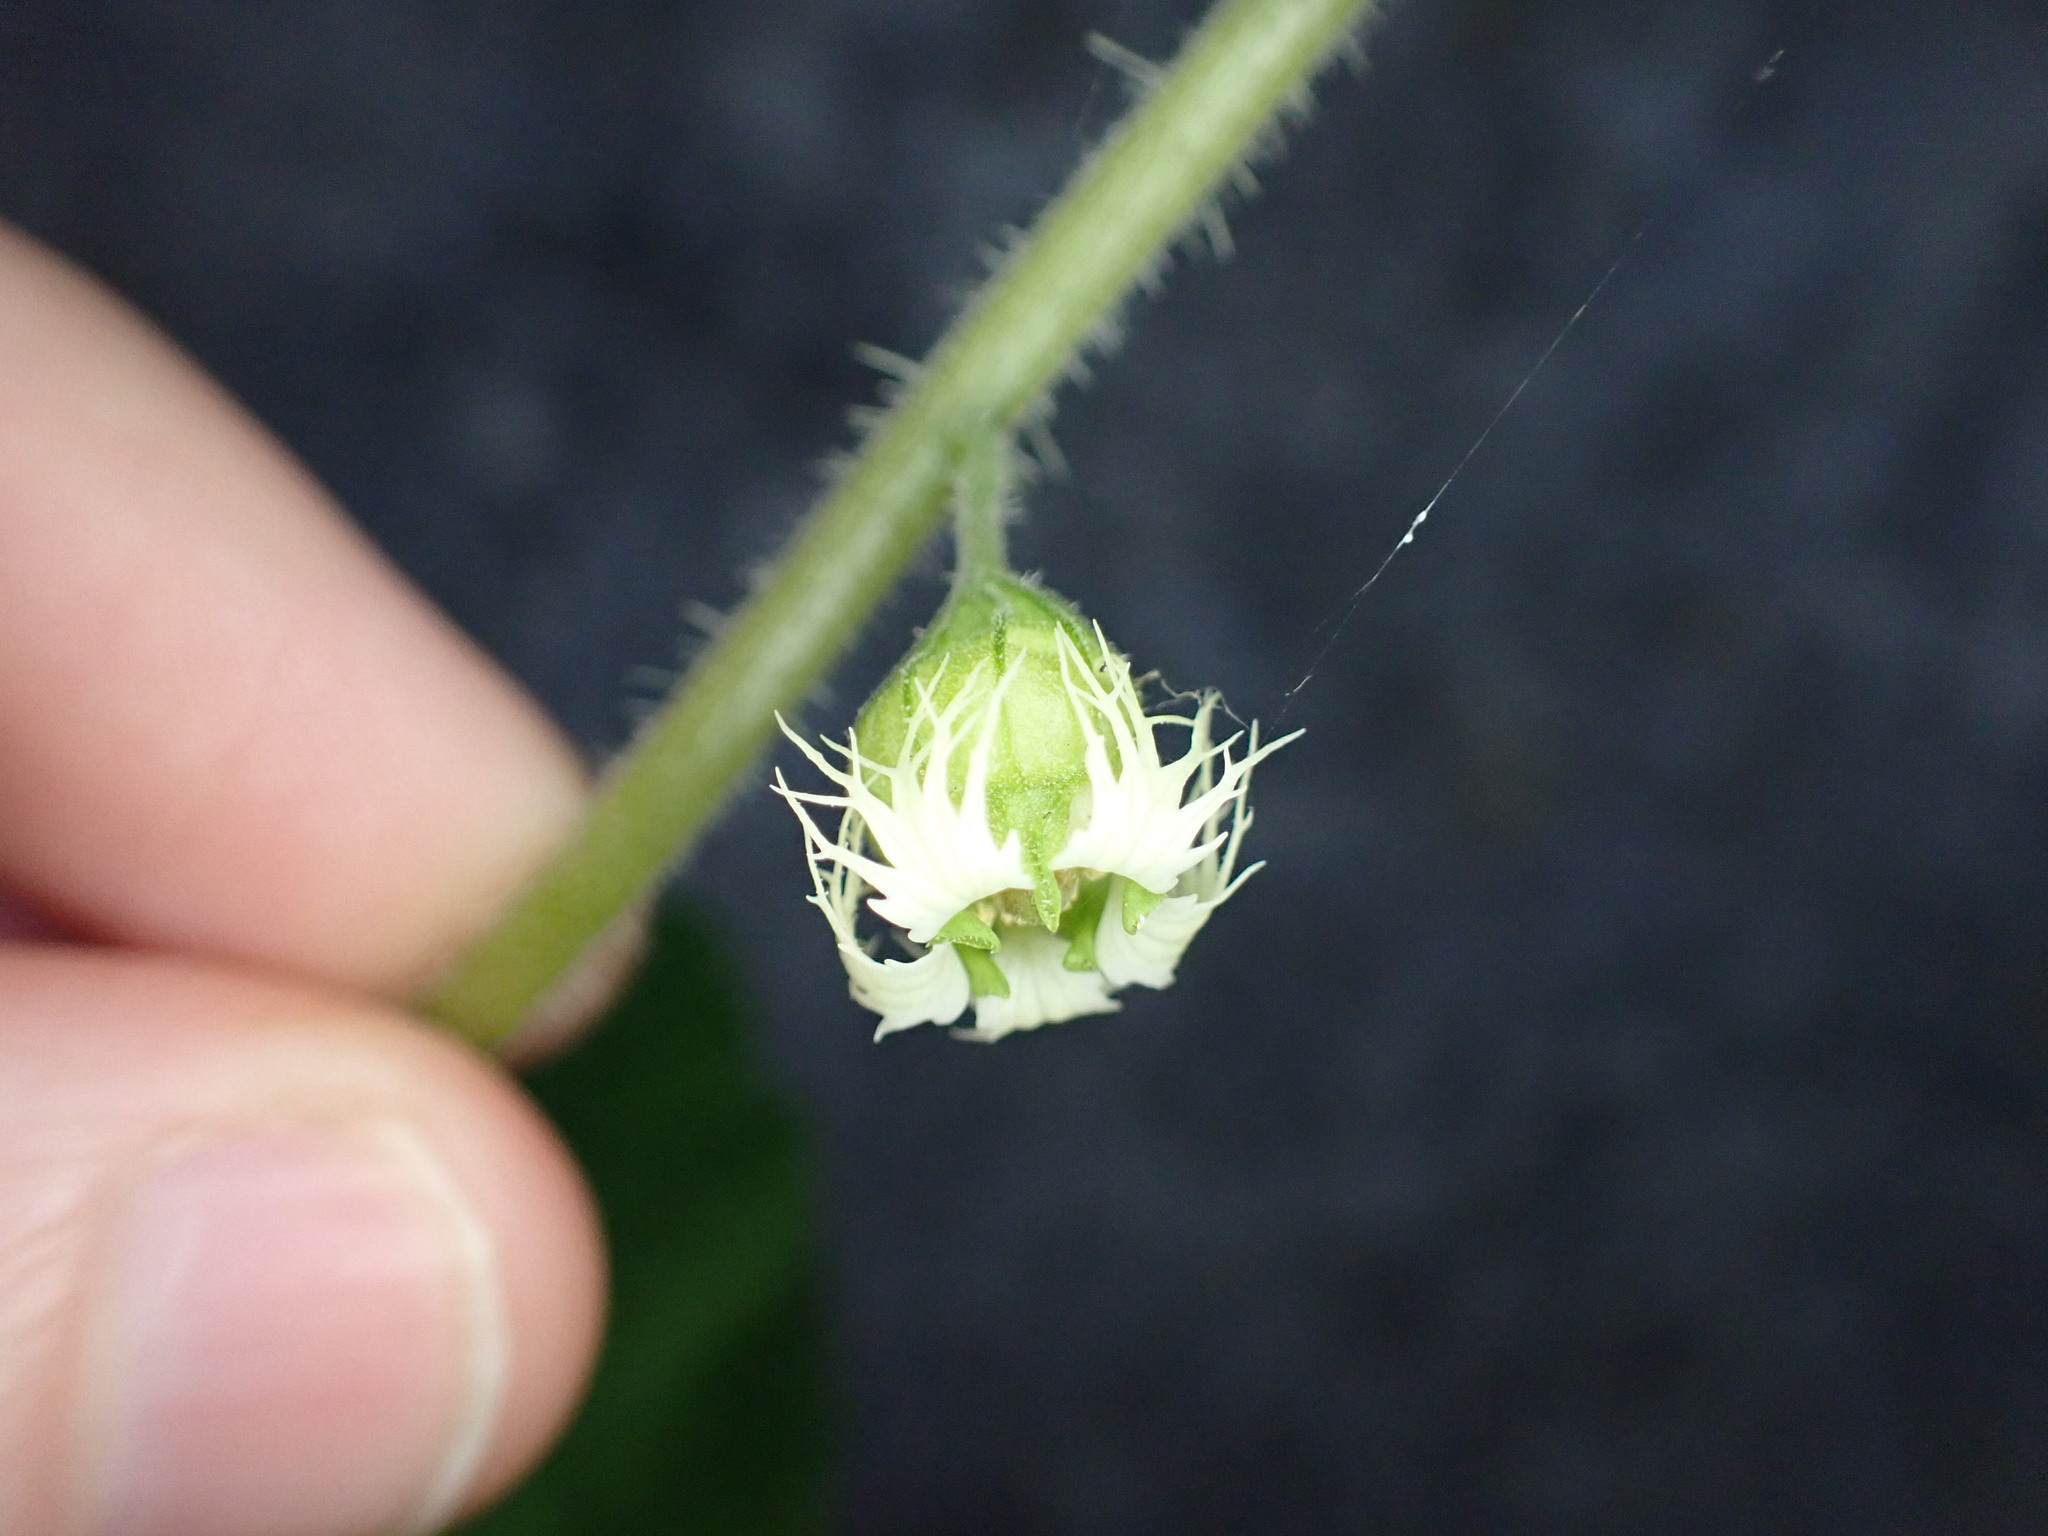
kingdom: Plantae
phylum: Tracheophyta
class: Magnoliopsida
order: Saxifragales
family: Saxifragaceae
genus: Tellima
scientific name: Tellima grandiflora
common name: Fringecups
